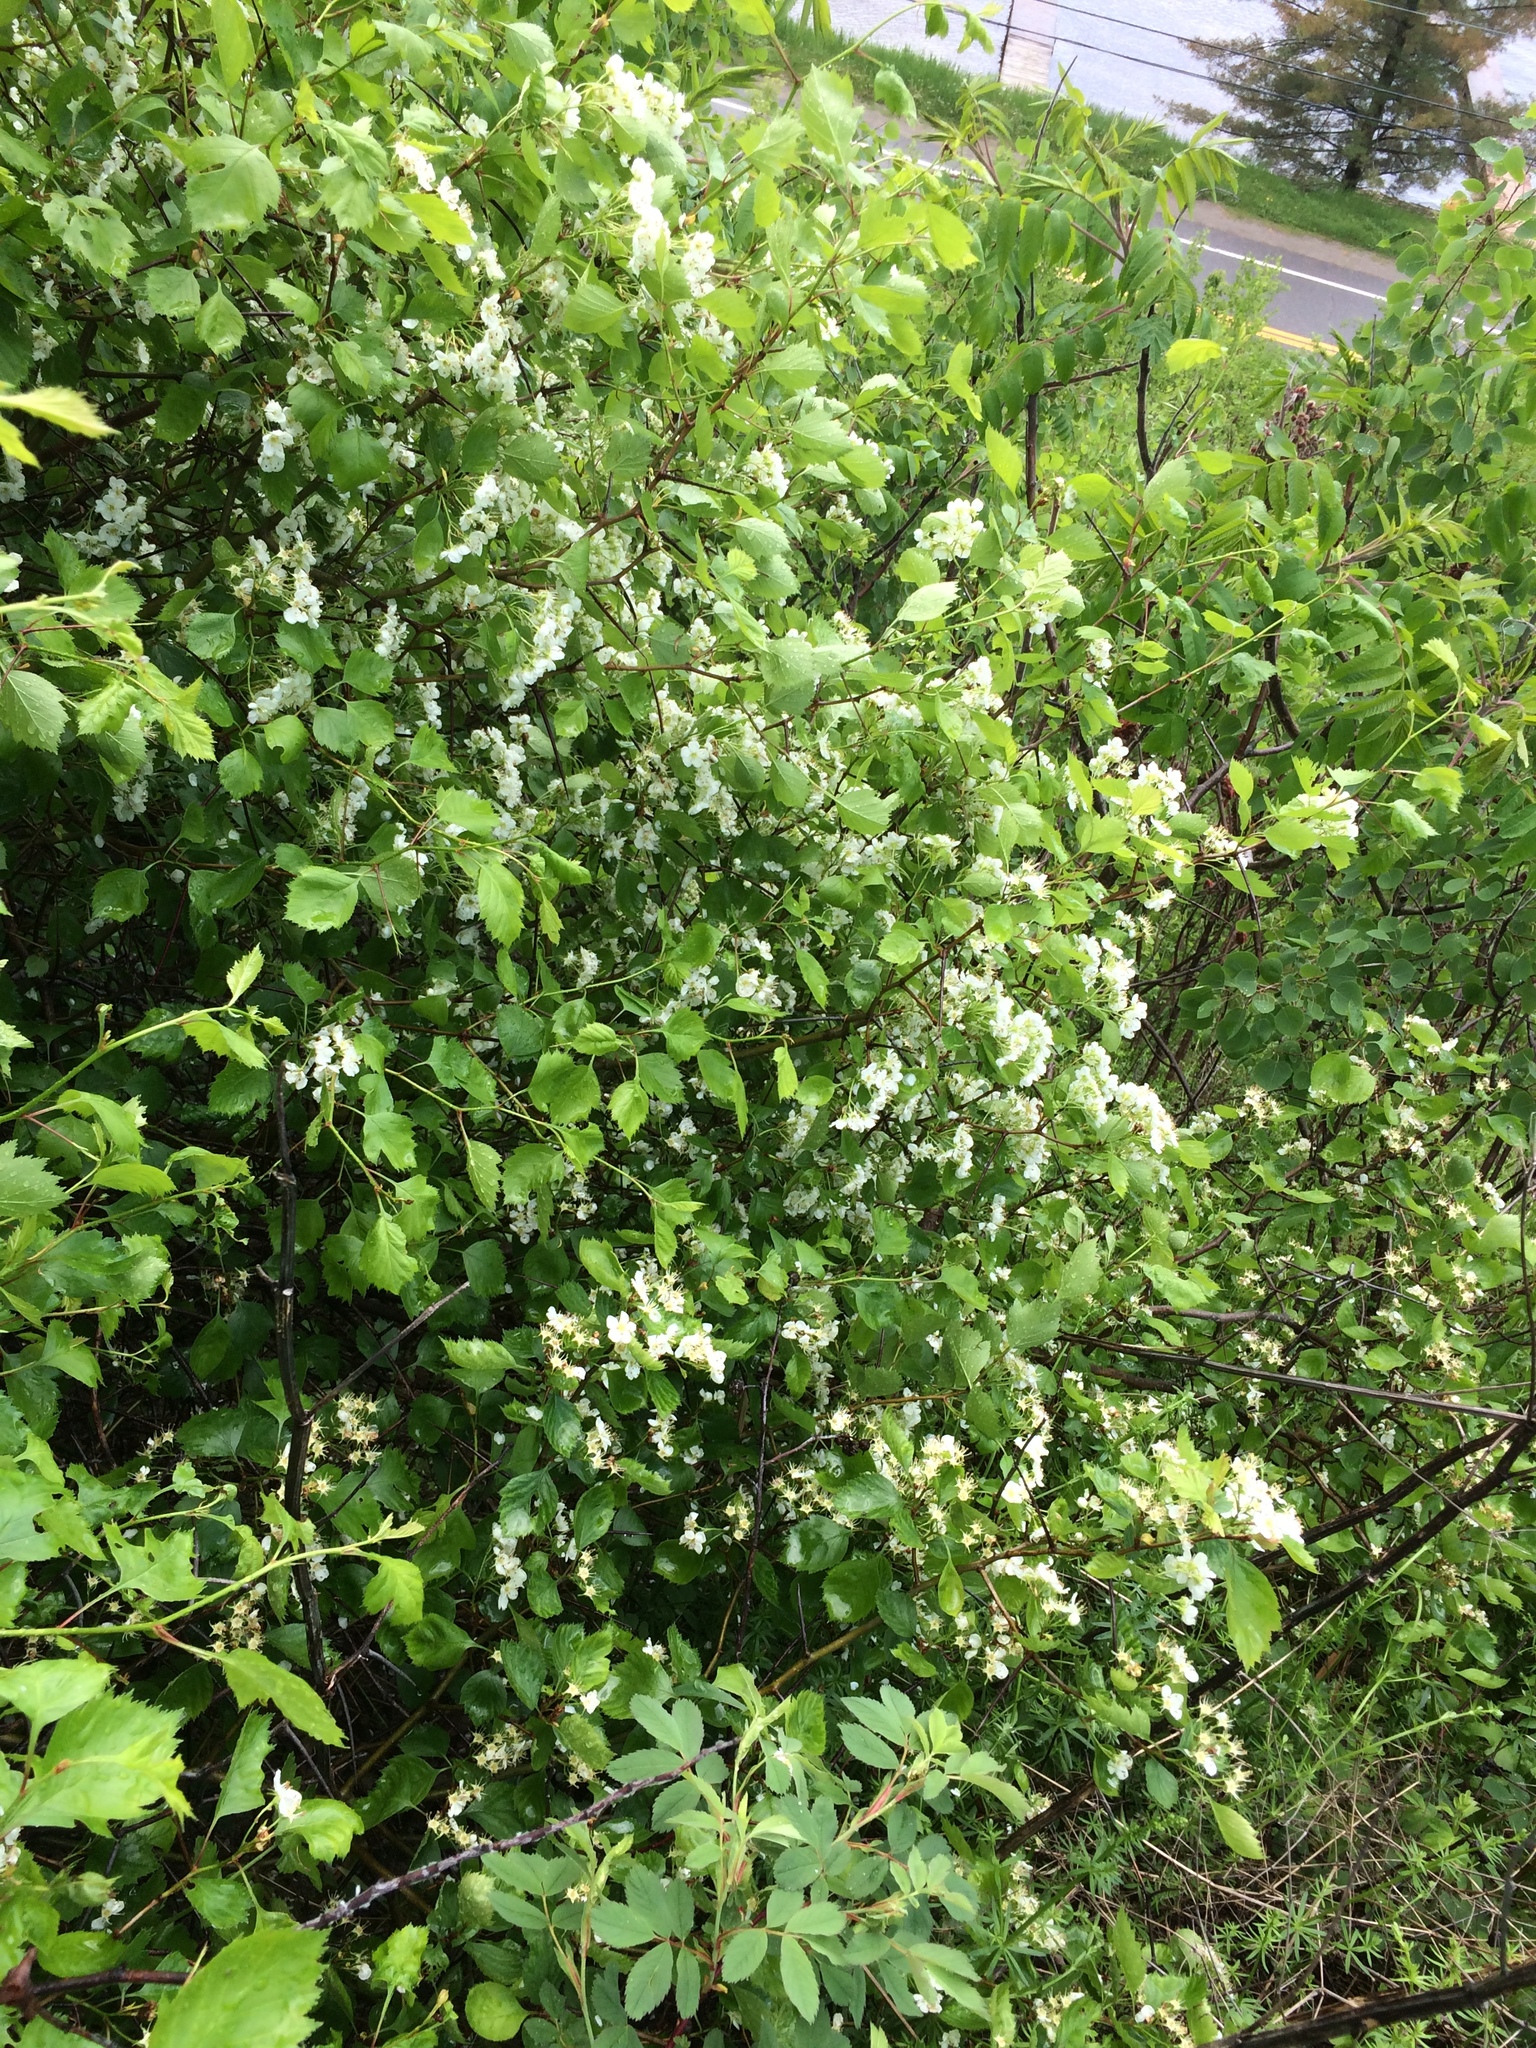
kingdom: Plantae
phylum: Tracheophyta
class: Magnoliopsida
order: Rosales
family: Rosaceae
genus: Crataegus
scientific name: Crataegus chrysocarpa
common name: Fire-berry hawthorn
